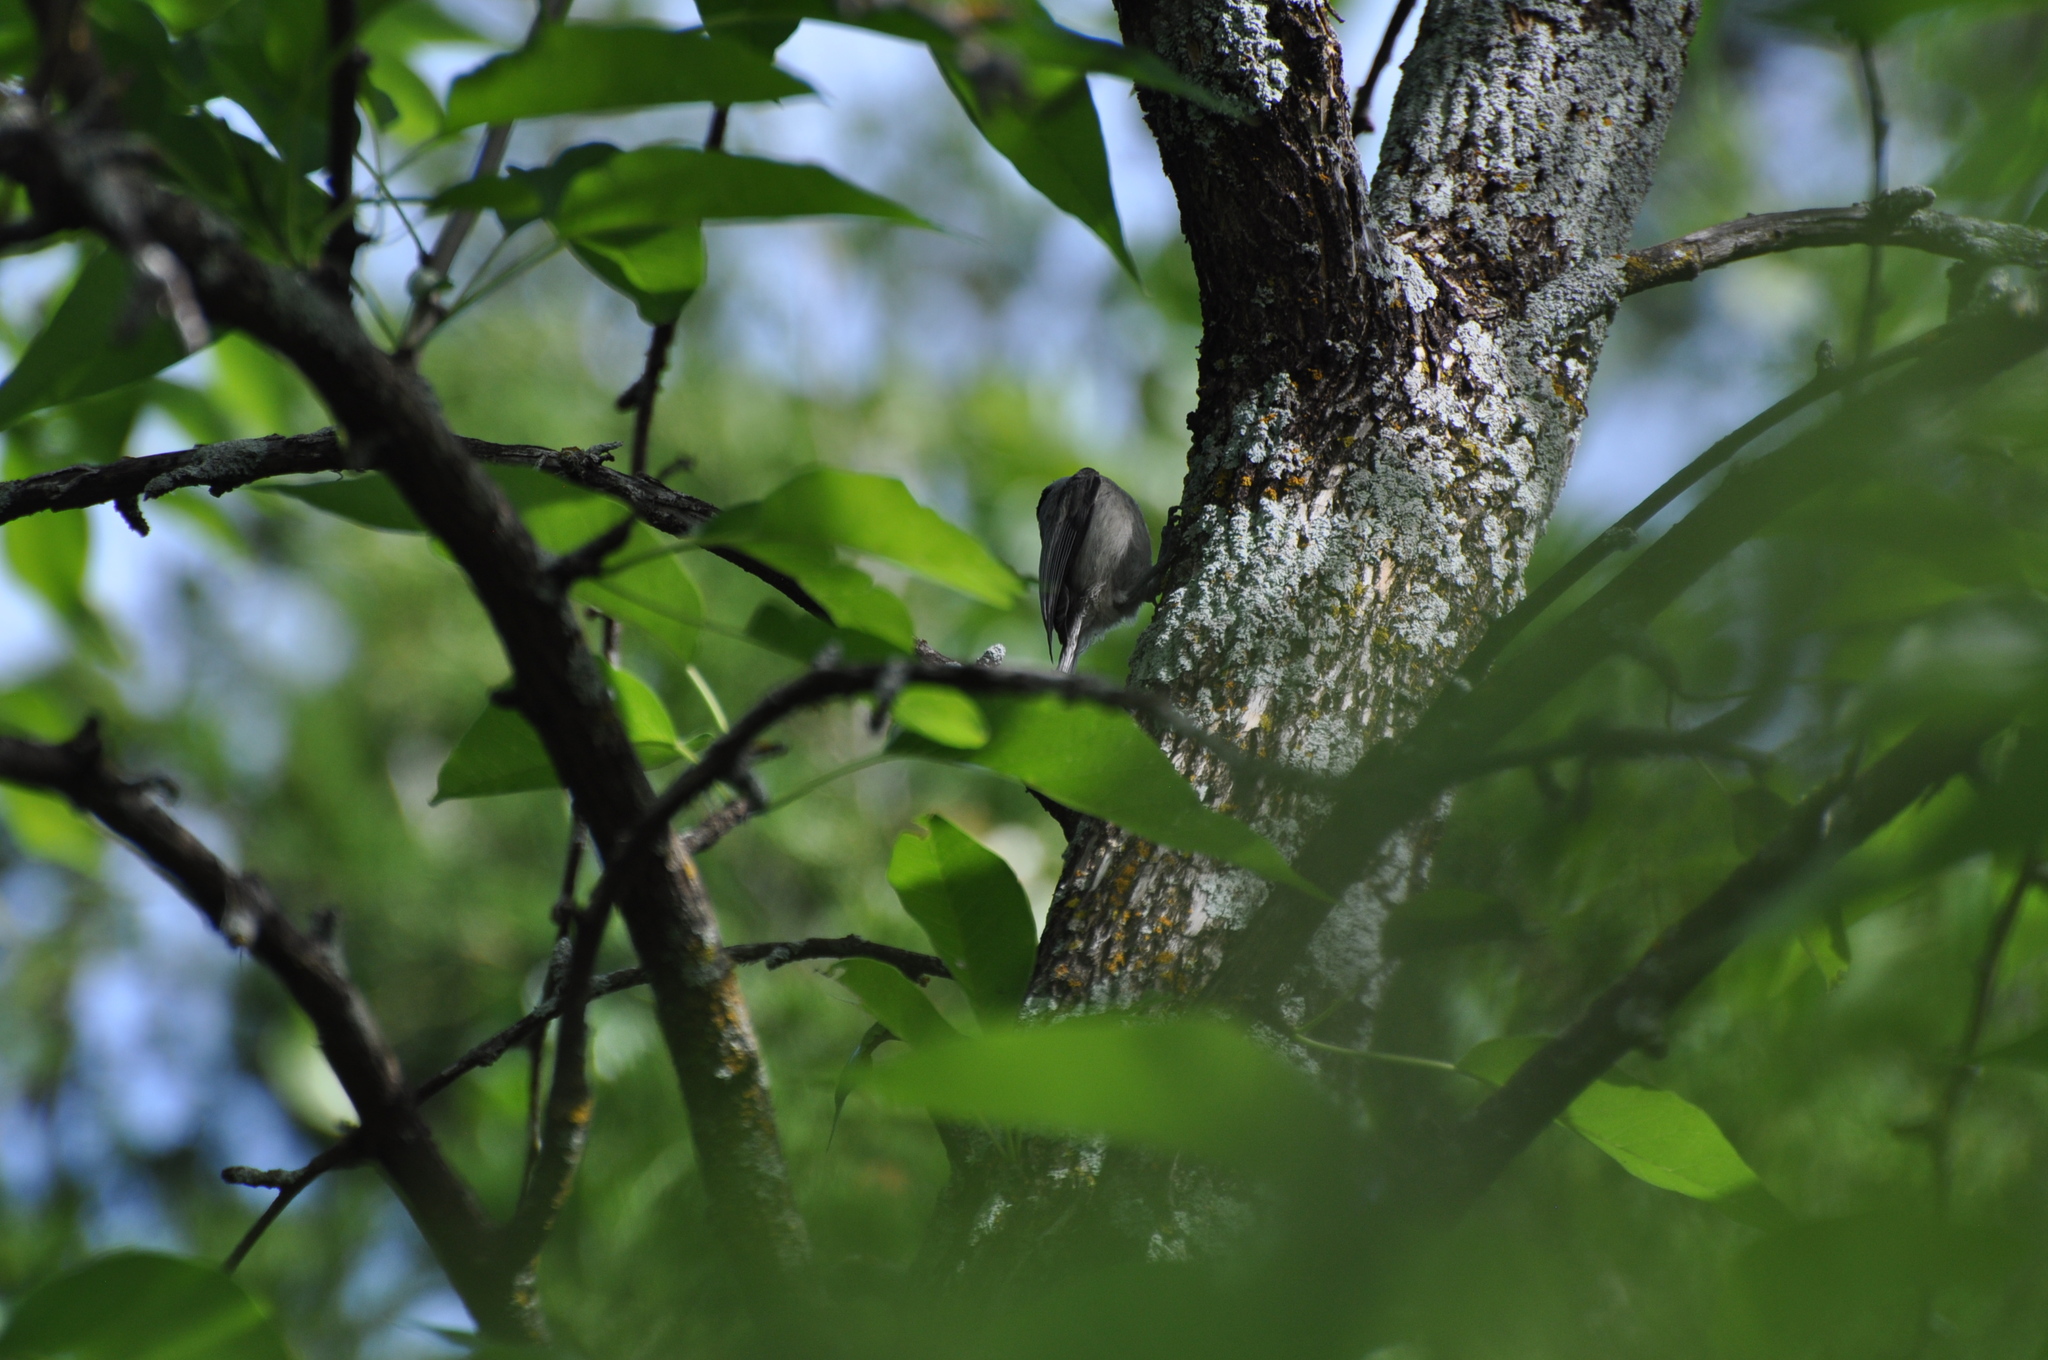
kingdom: Animalia
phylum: Chordata
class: Aves
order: Passeriformes
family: Paridae
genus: Poecile
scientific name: Poecile carolinensis
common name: Carolina chickadee
